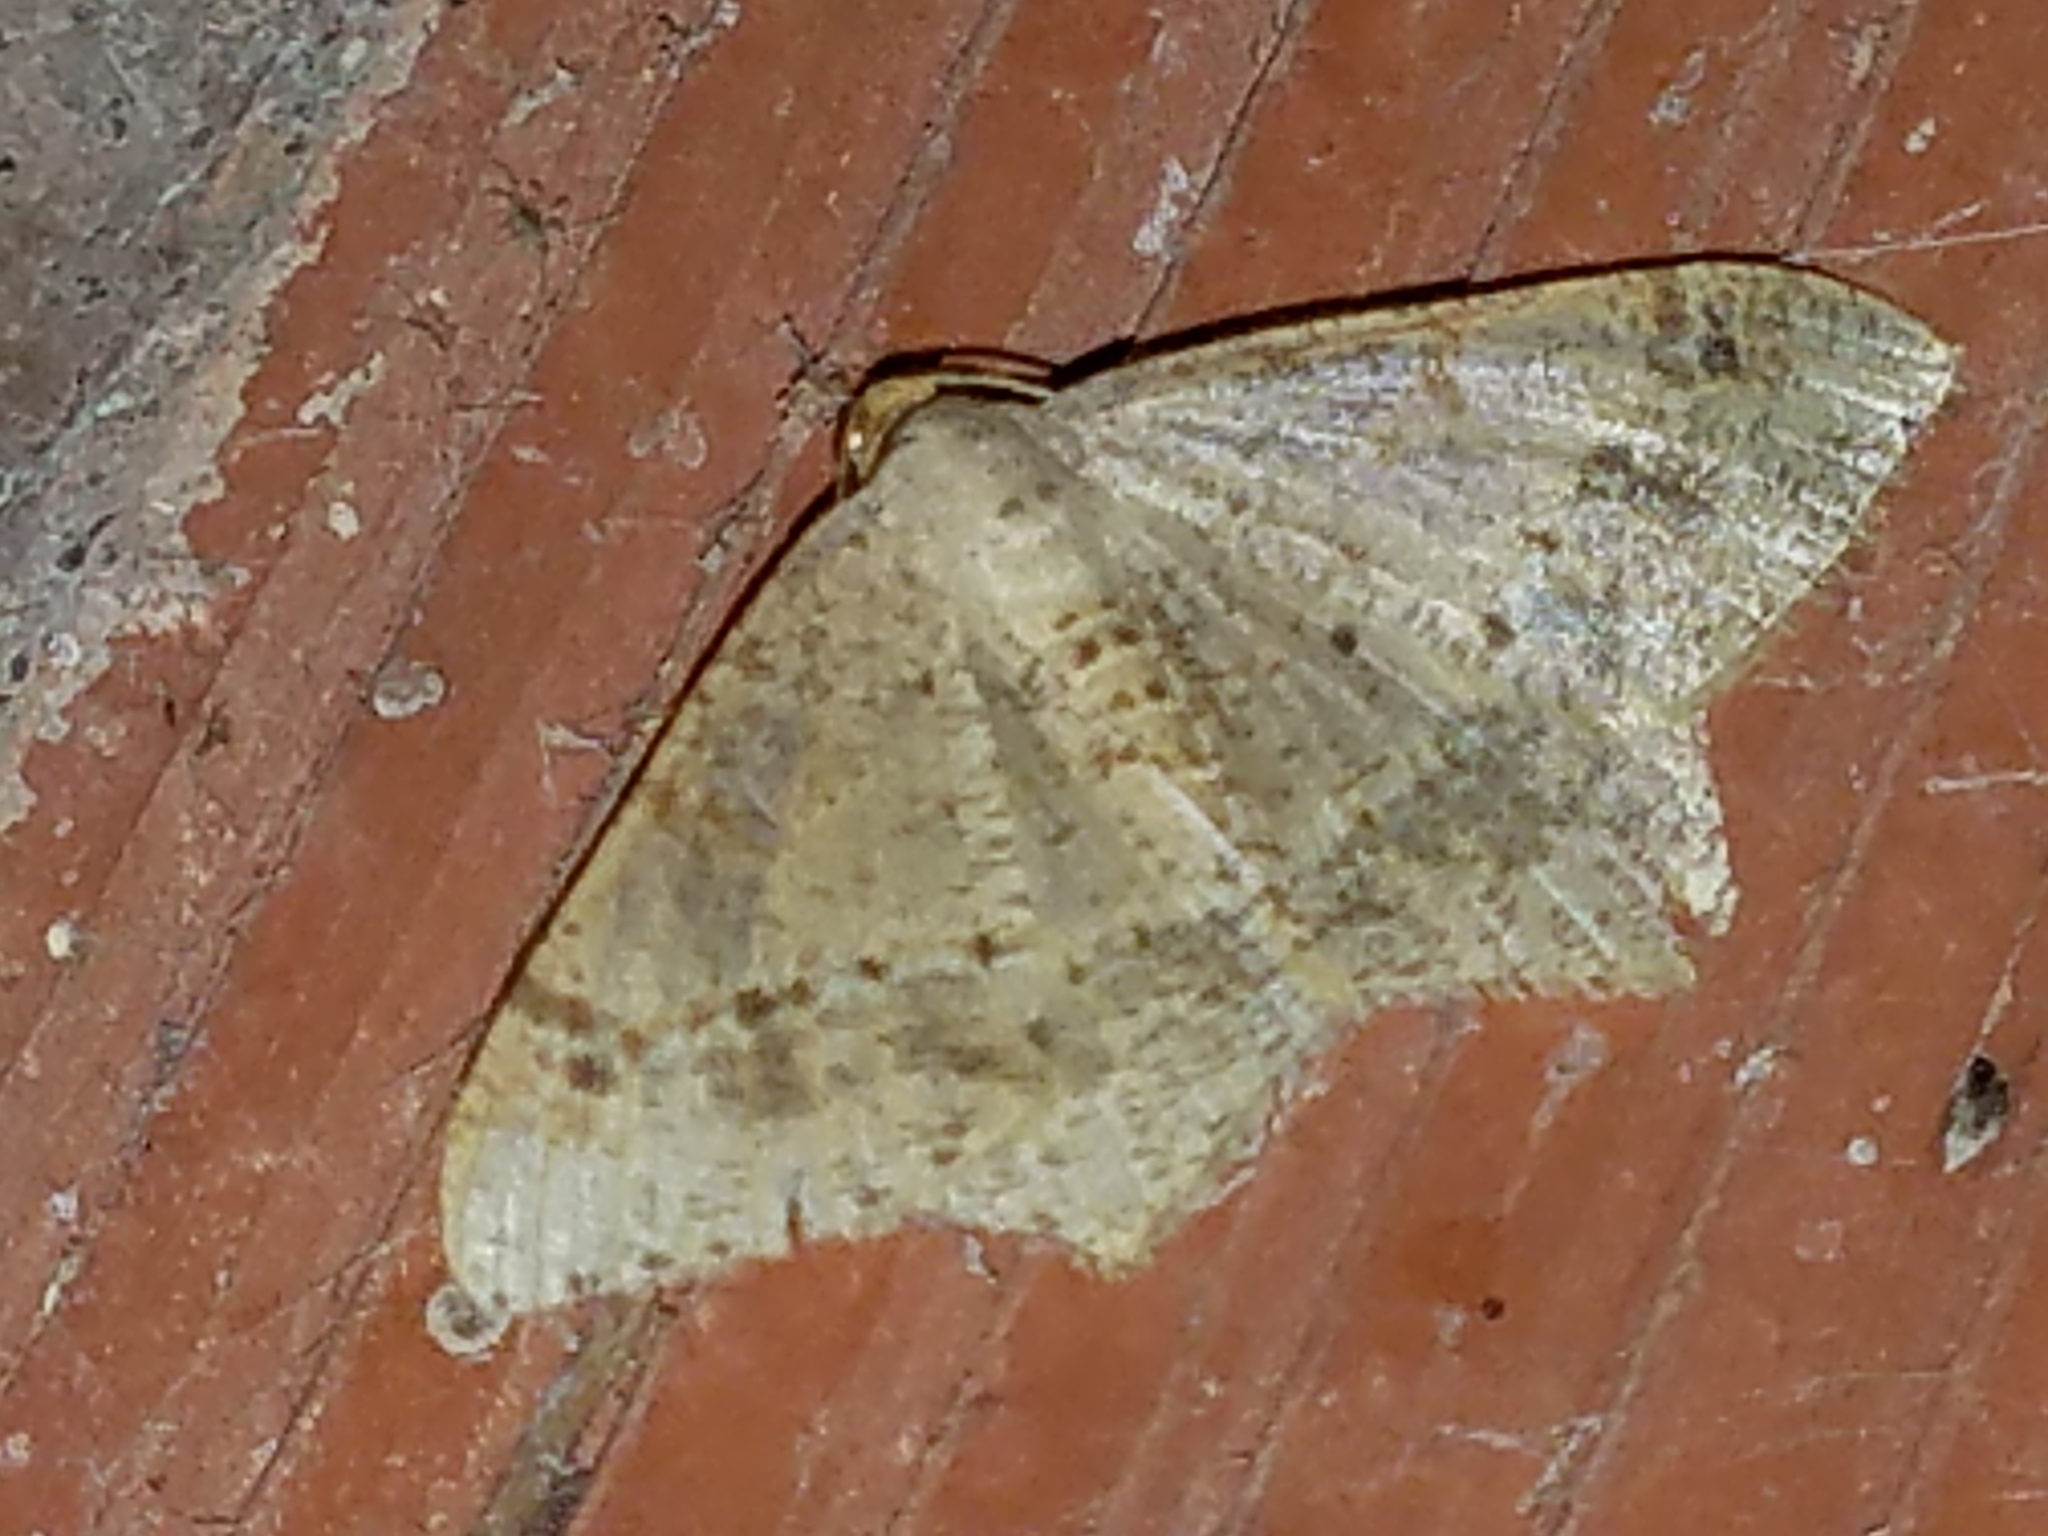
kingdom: Animalia
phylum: Arthropoda
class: Insecta
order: Lepidoptera
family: Geometridae
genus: Macaria
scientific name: Macaria abydata
